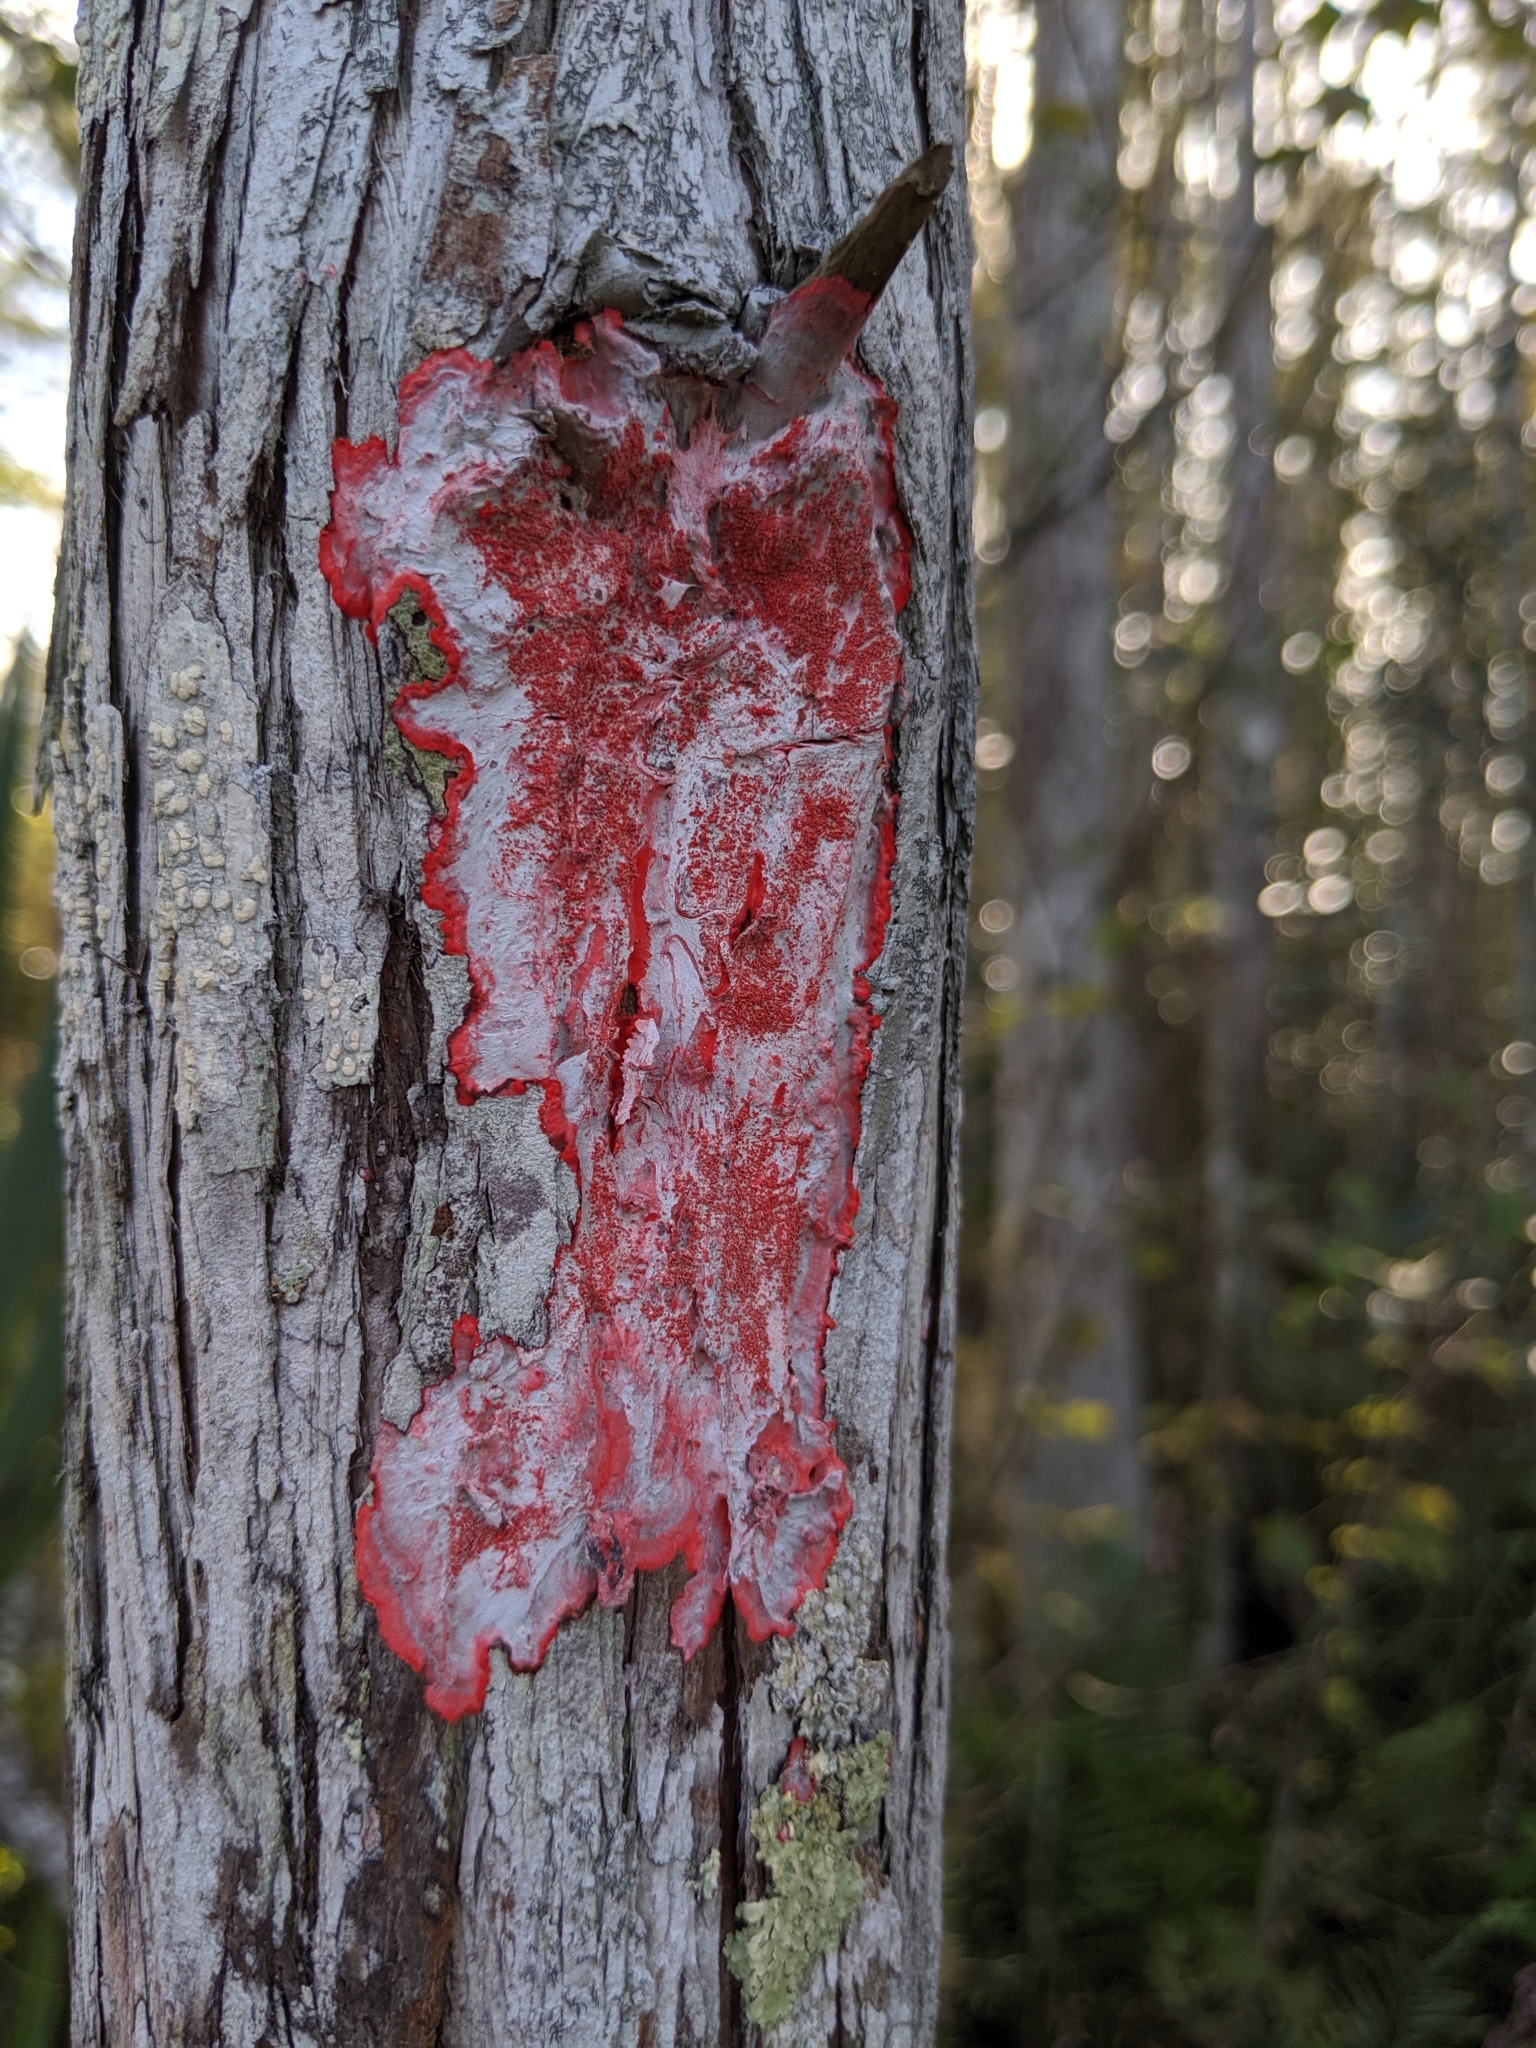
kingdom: Fungi
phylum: Ascomycota
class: Arthoniomycetes
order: Arthoniales
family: Arthoniaceae
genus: Herpothallon
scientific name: Herpothallon rubrocinctum
